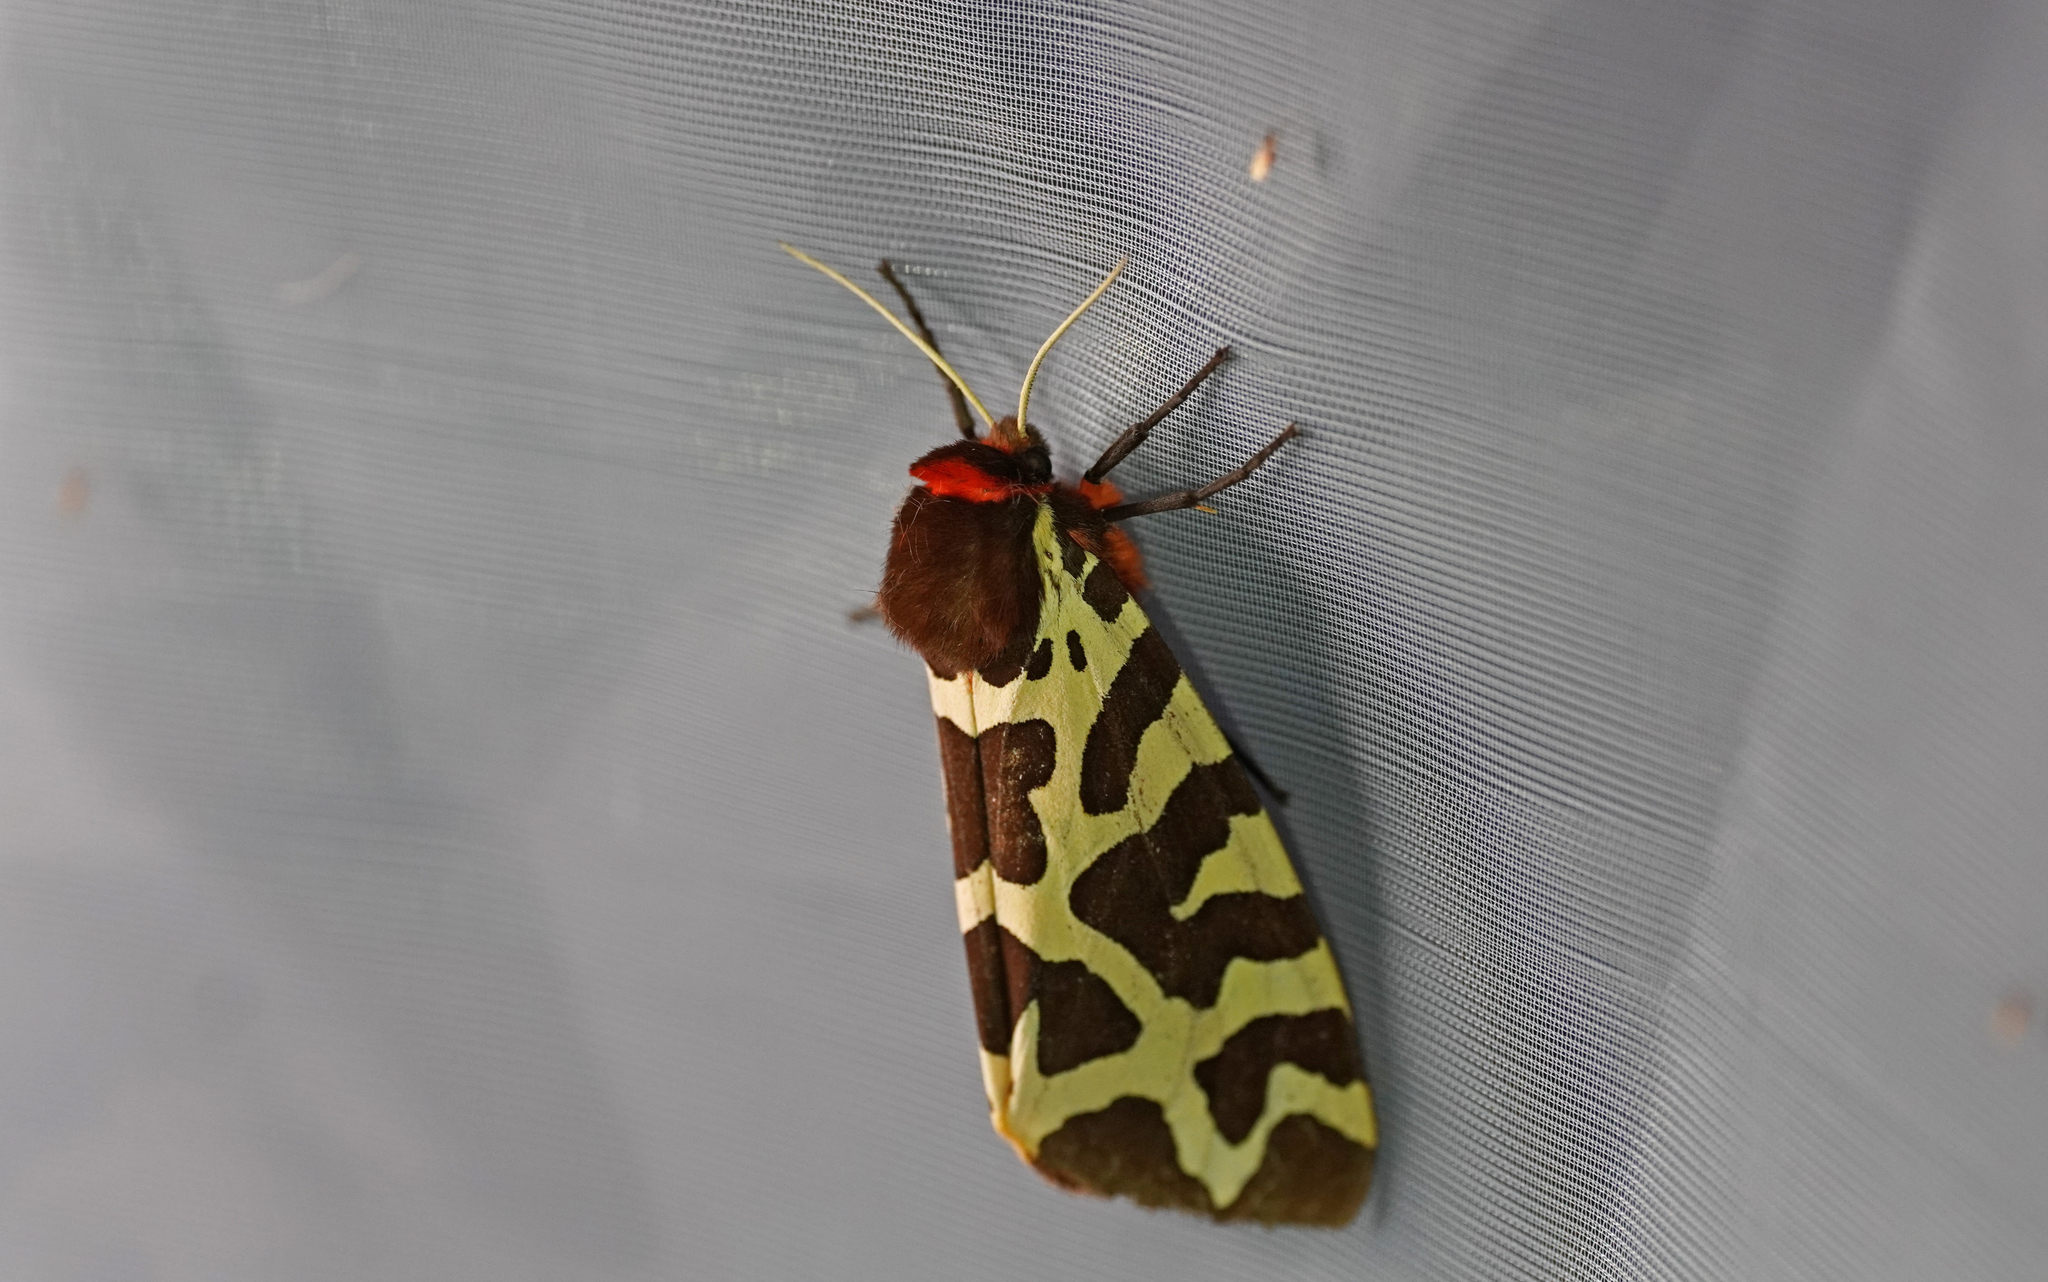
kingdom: Animalia
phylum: Arthropoda
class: Insecta
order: Lepidoptera
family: Erebidae
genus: Arctia
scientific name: Arctia caja
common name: Garden tiger
